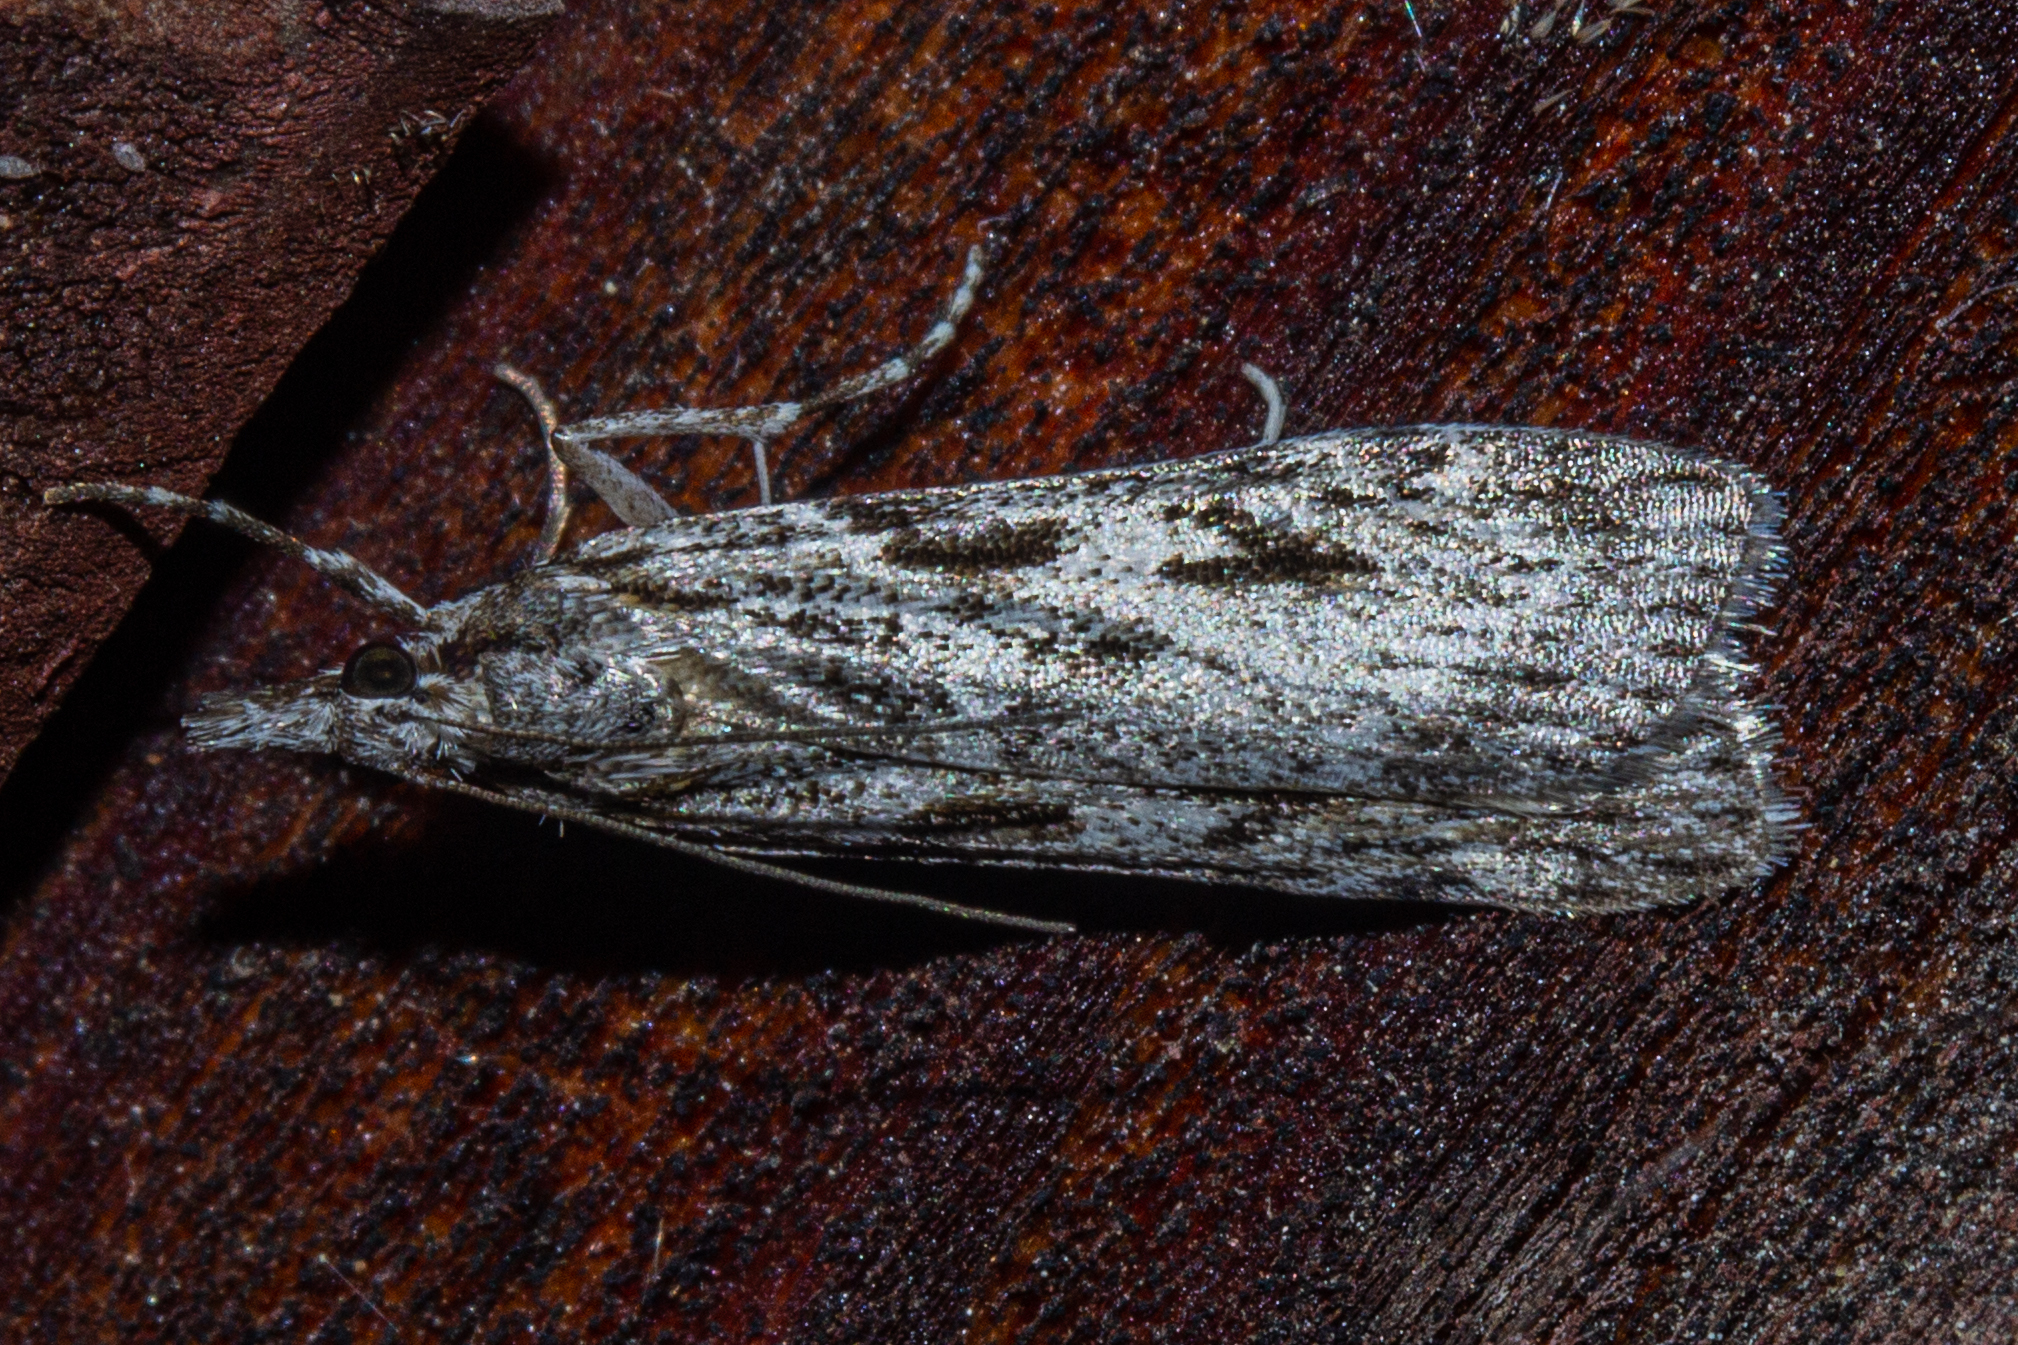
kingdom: Animalia
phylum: Arthropoda
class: Insecta
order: Lepidoptera
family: Crambidae
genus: Scoparia
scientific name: Scoparia halopis
